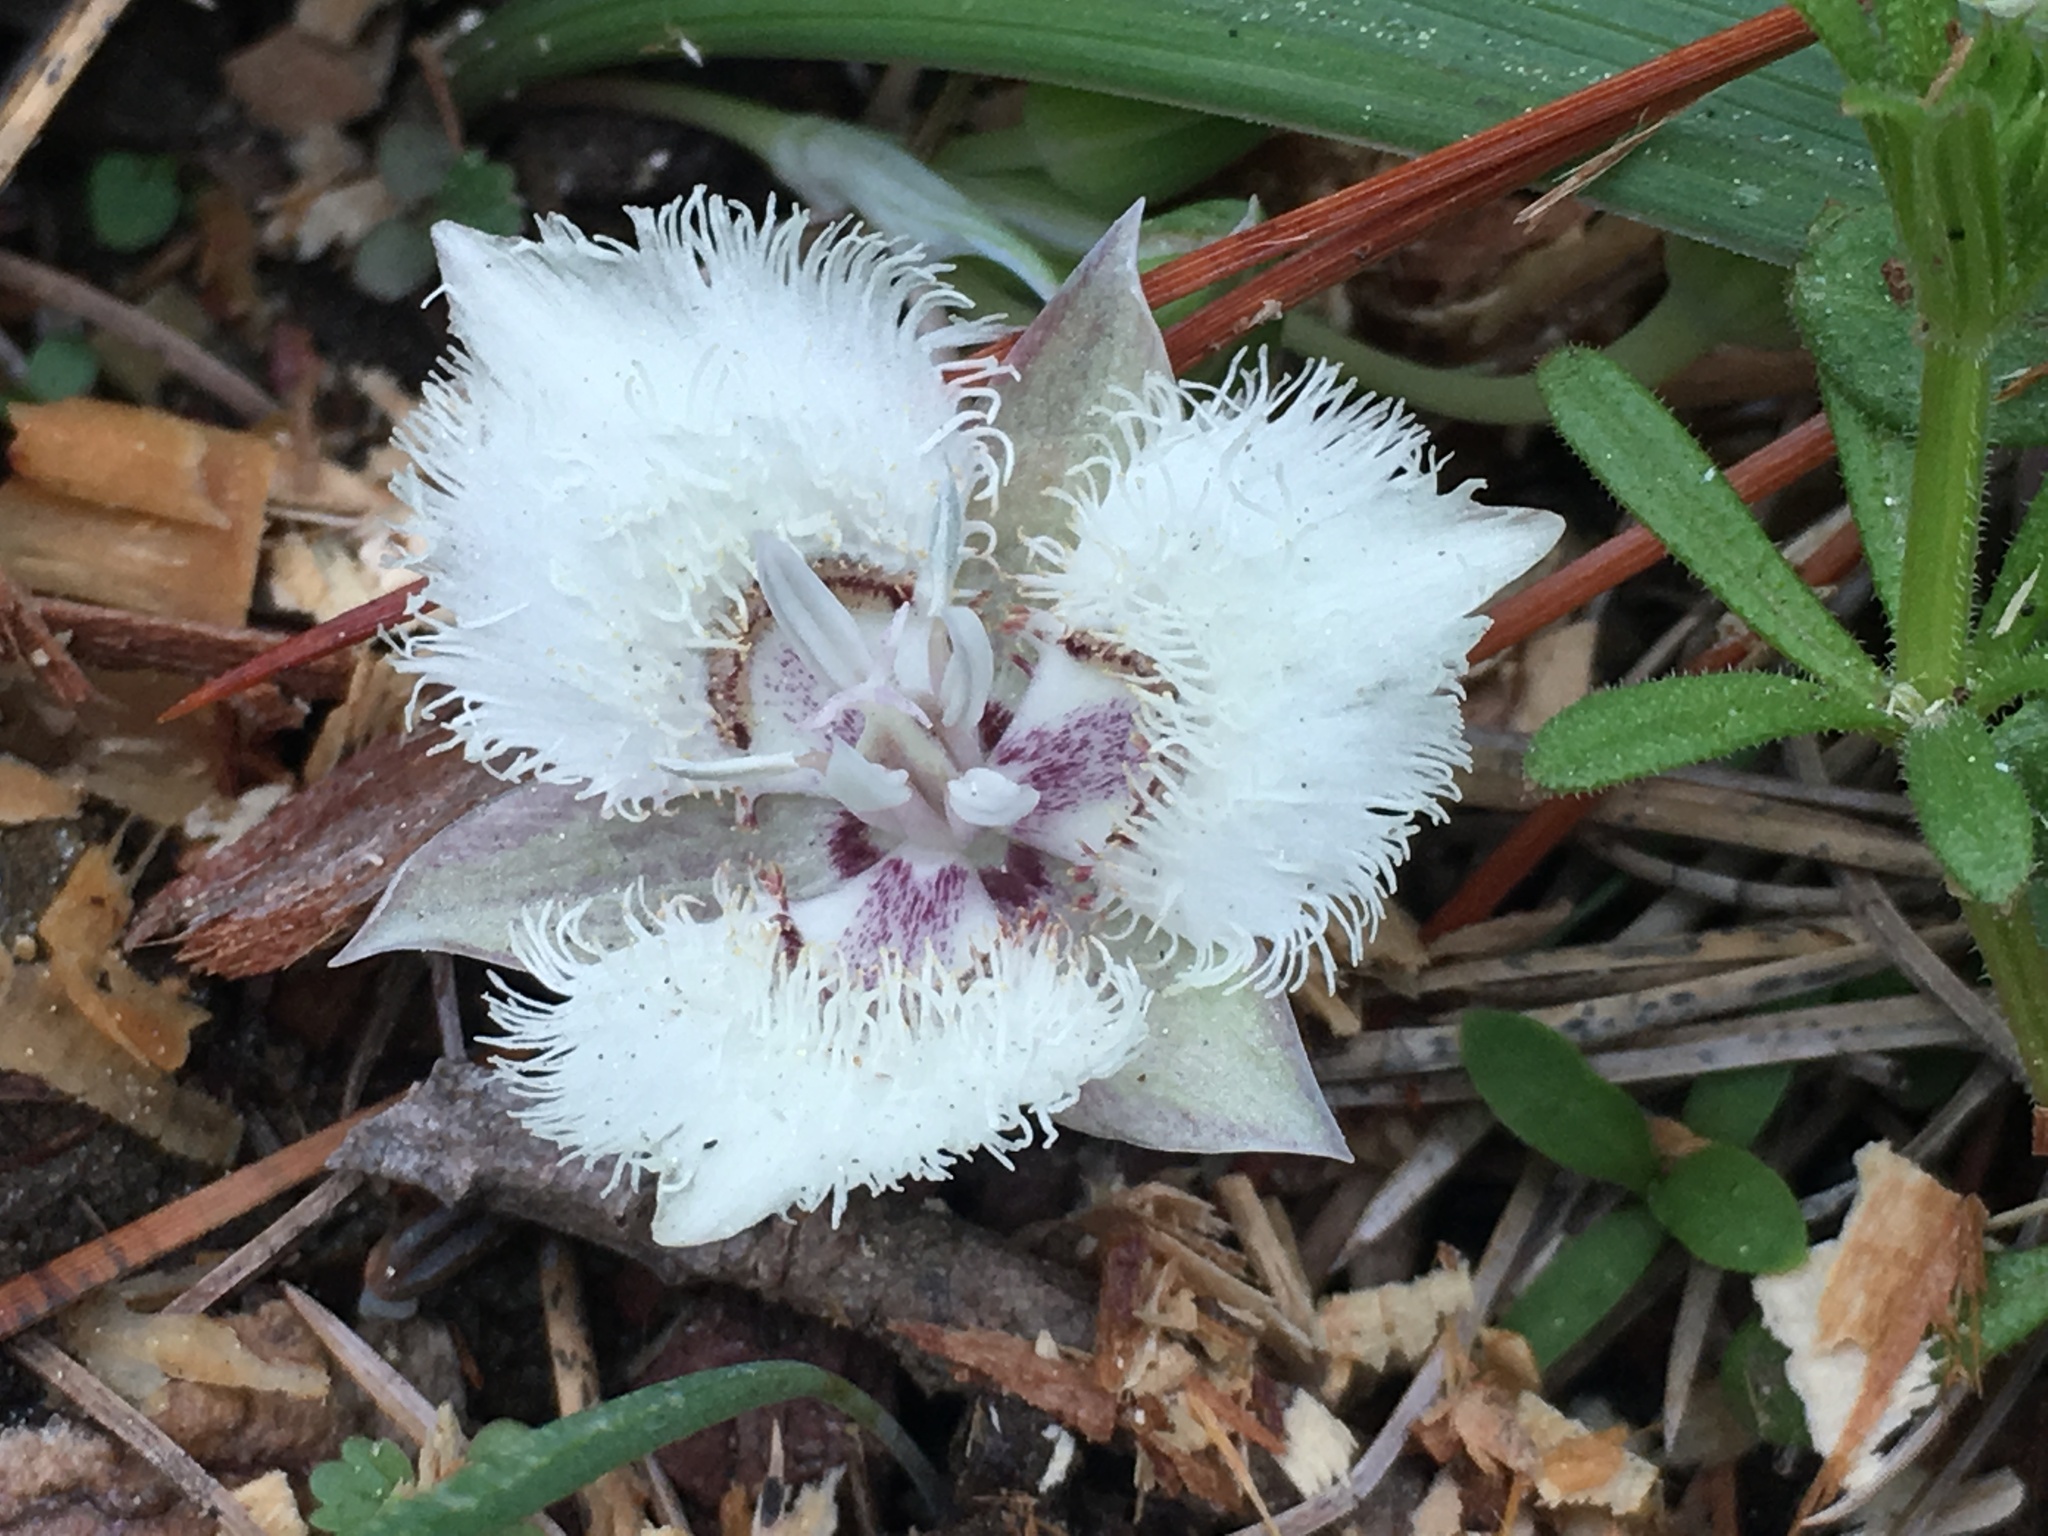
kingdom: Plantae
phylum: Tracheophyta
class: Liliopsida
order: Liliales
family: Liliaceae
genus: Calochortus
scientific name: Calochortus westonii
